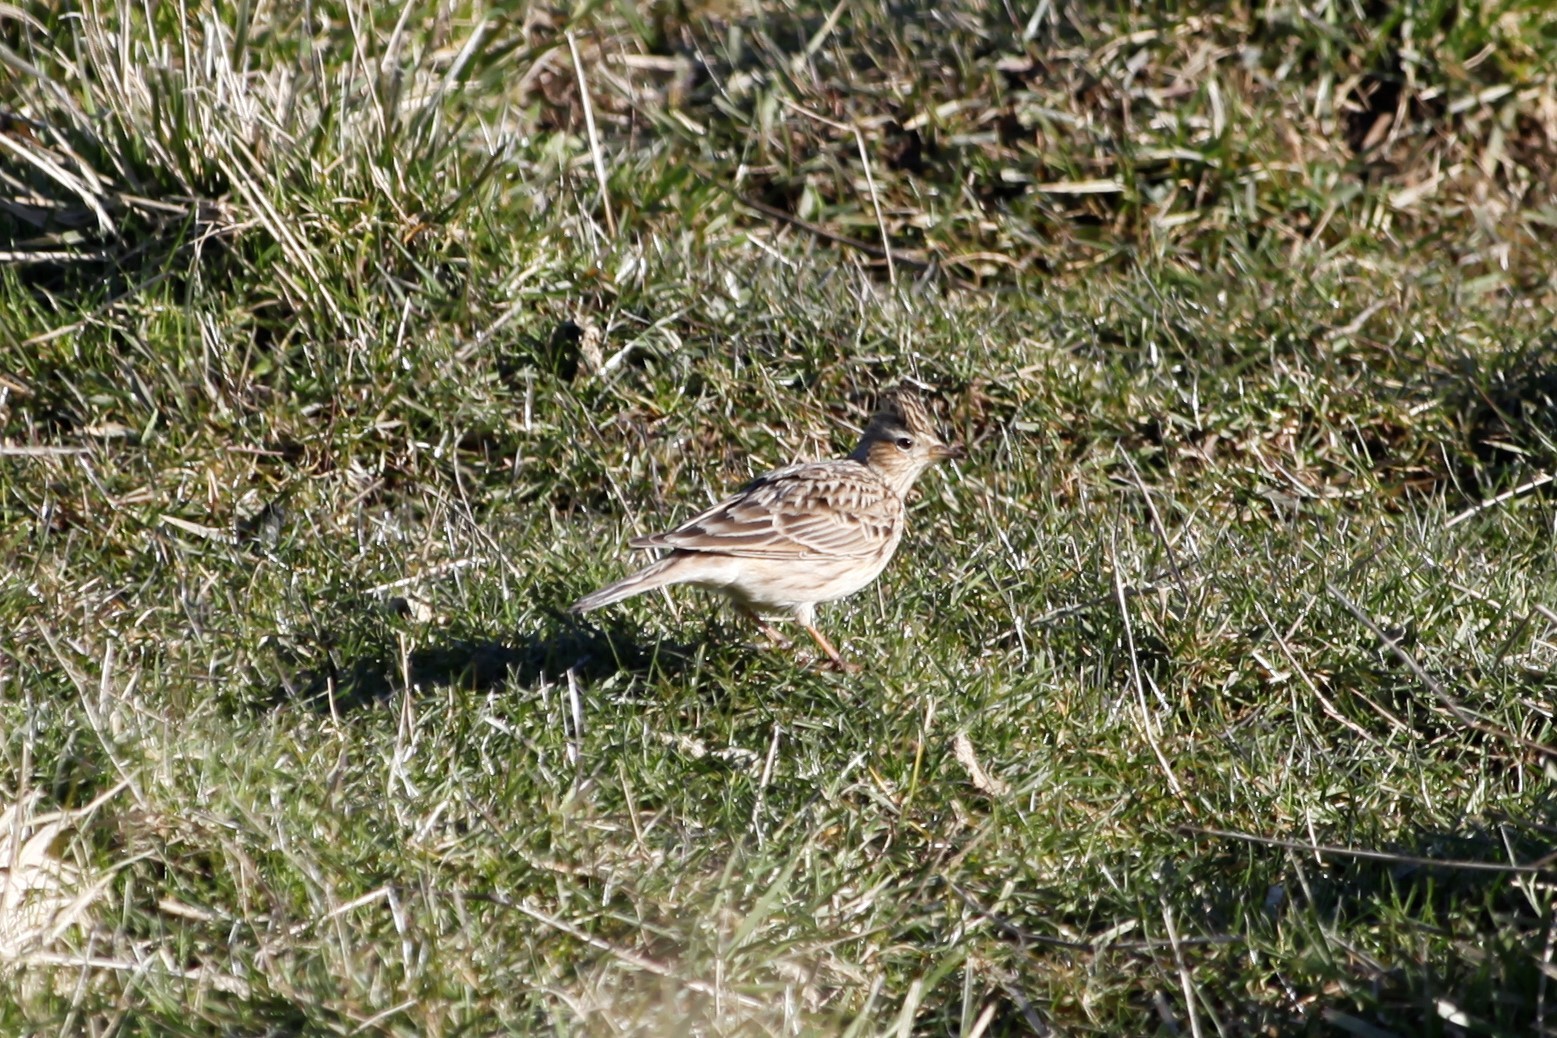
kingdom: Animalia
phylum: Chordata
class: Aves
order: Passeriformes
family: Alaudidae
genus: Alauda
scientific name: Alauda arvensis
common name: Eurasian skylark
